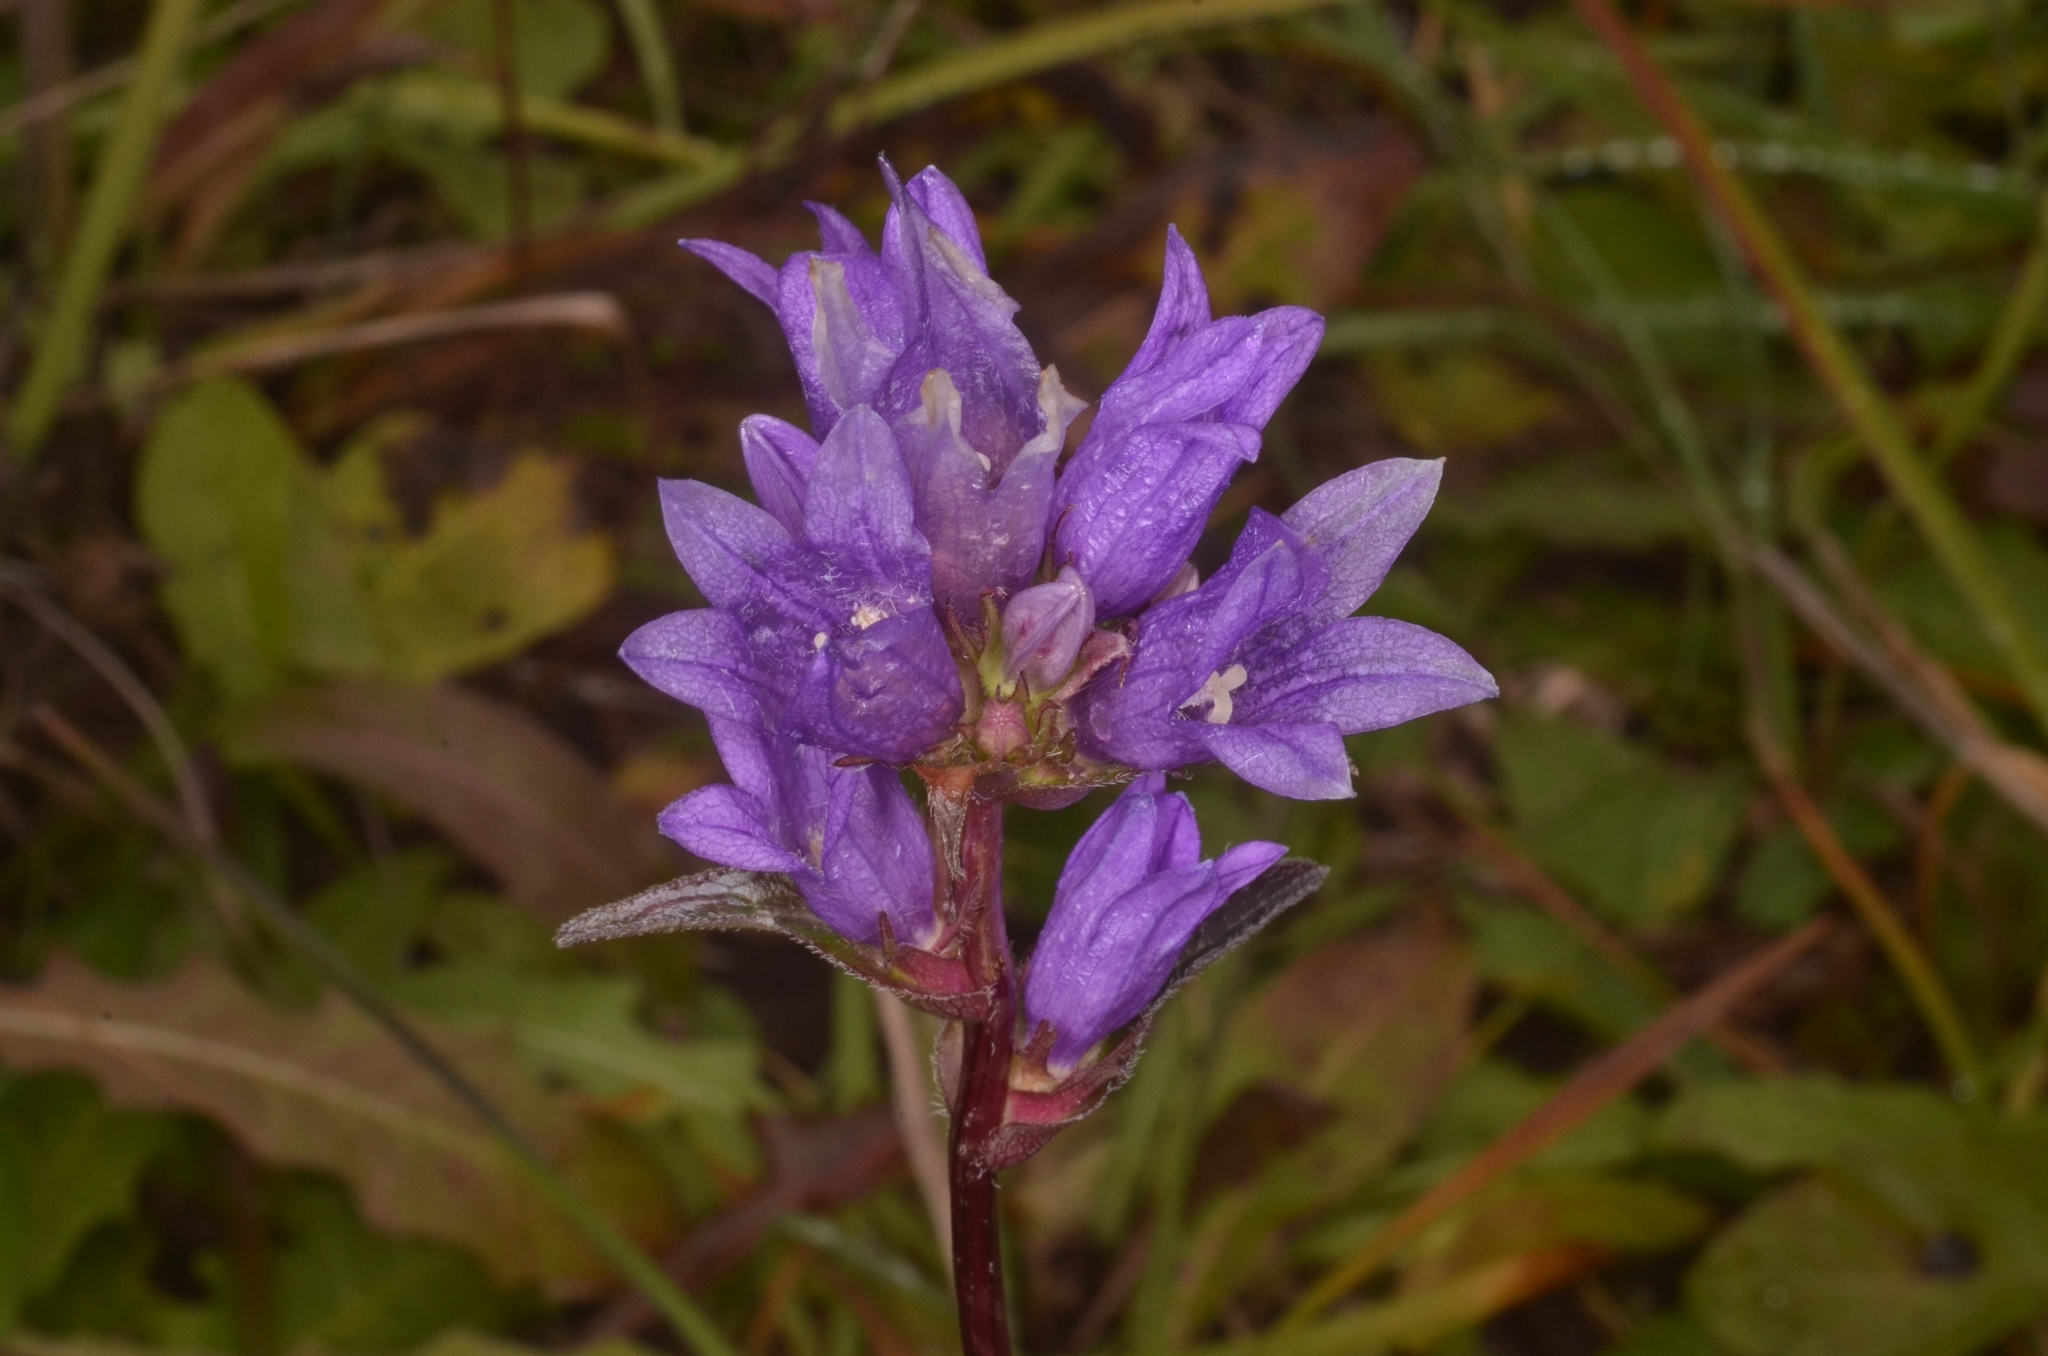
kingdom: Plantae
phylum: Tracheophyta
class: Magnoliopsida
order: Asterales
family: Campanulaceae
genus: Campanula
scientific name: Campanula glomerata
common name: Clustered bellflower
